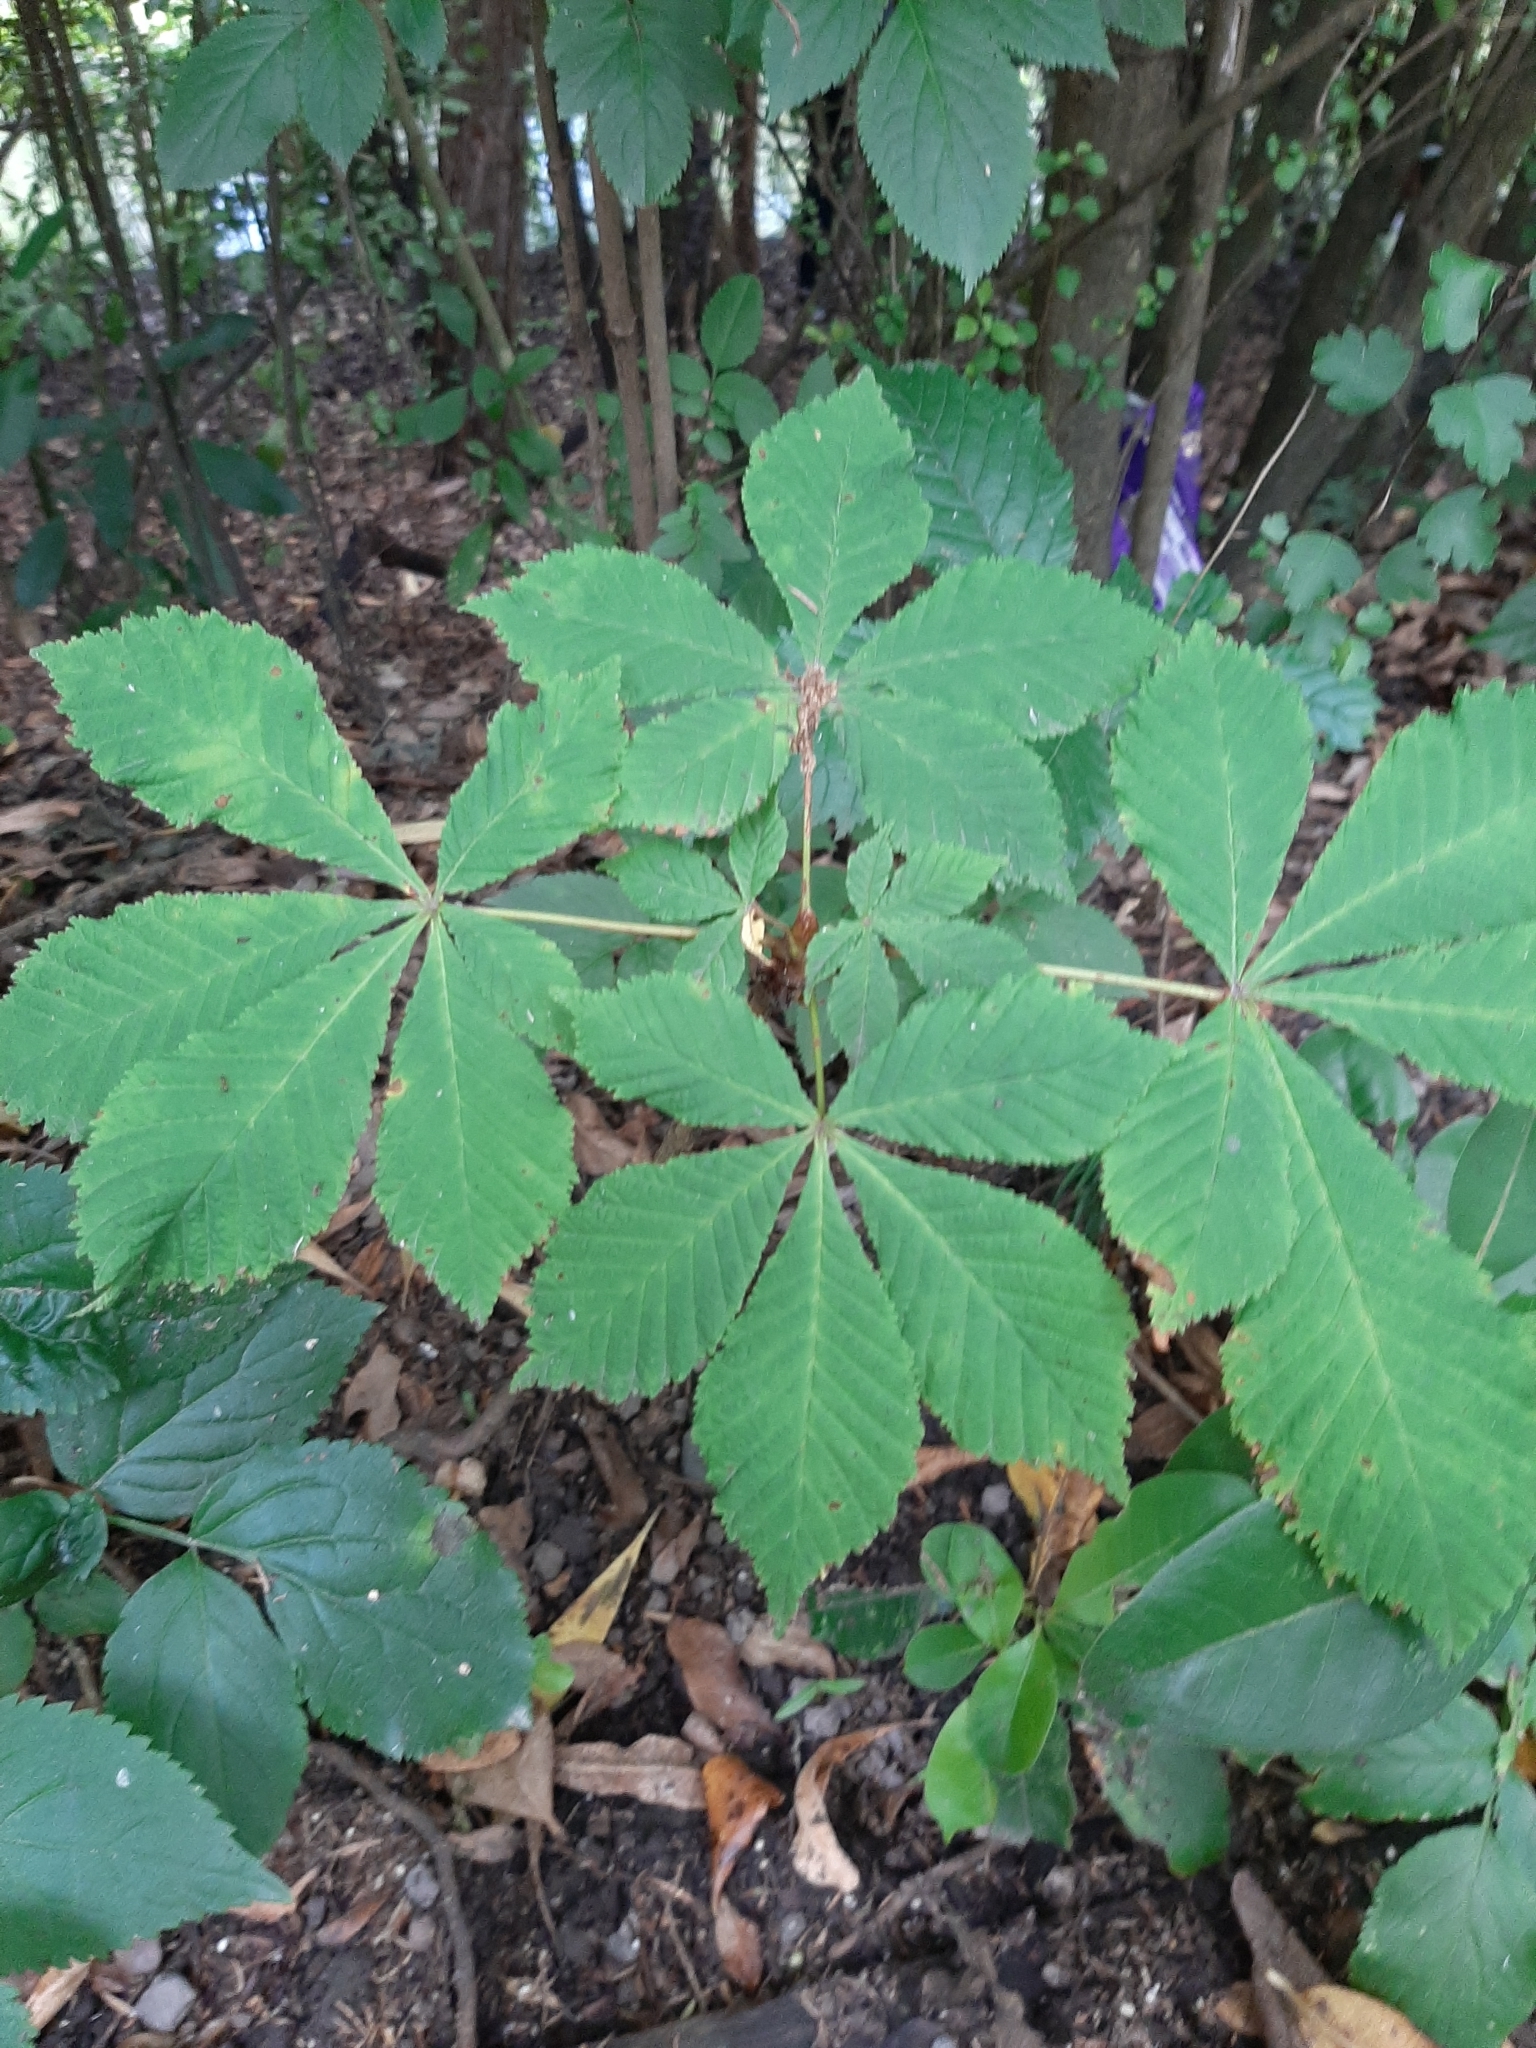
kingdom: Plantae
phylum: Tracheophyta
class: Magnoliopsida
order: Sapindales
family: Sapindaceae
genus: Aesculus
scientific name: Aesculus hippocastanum
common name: Horse-chestnut
